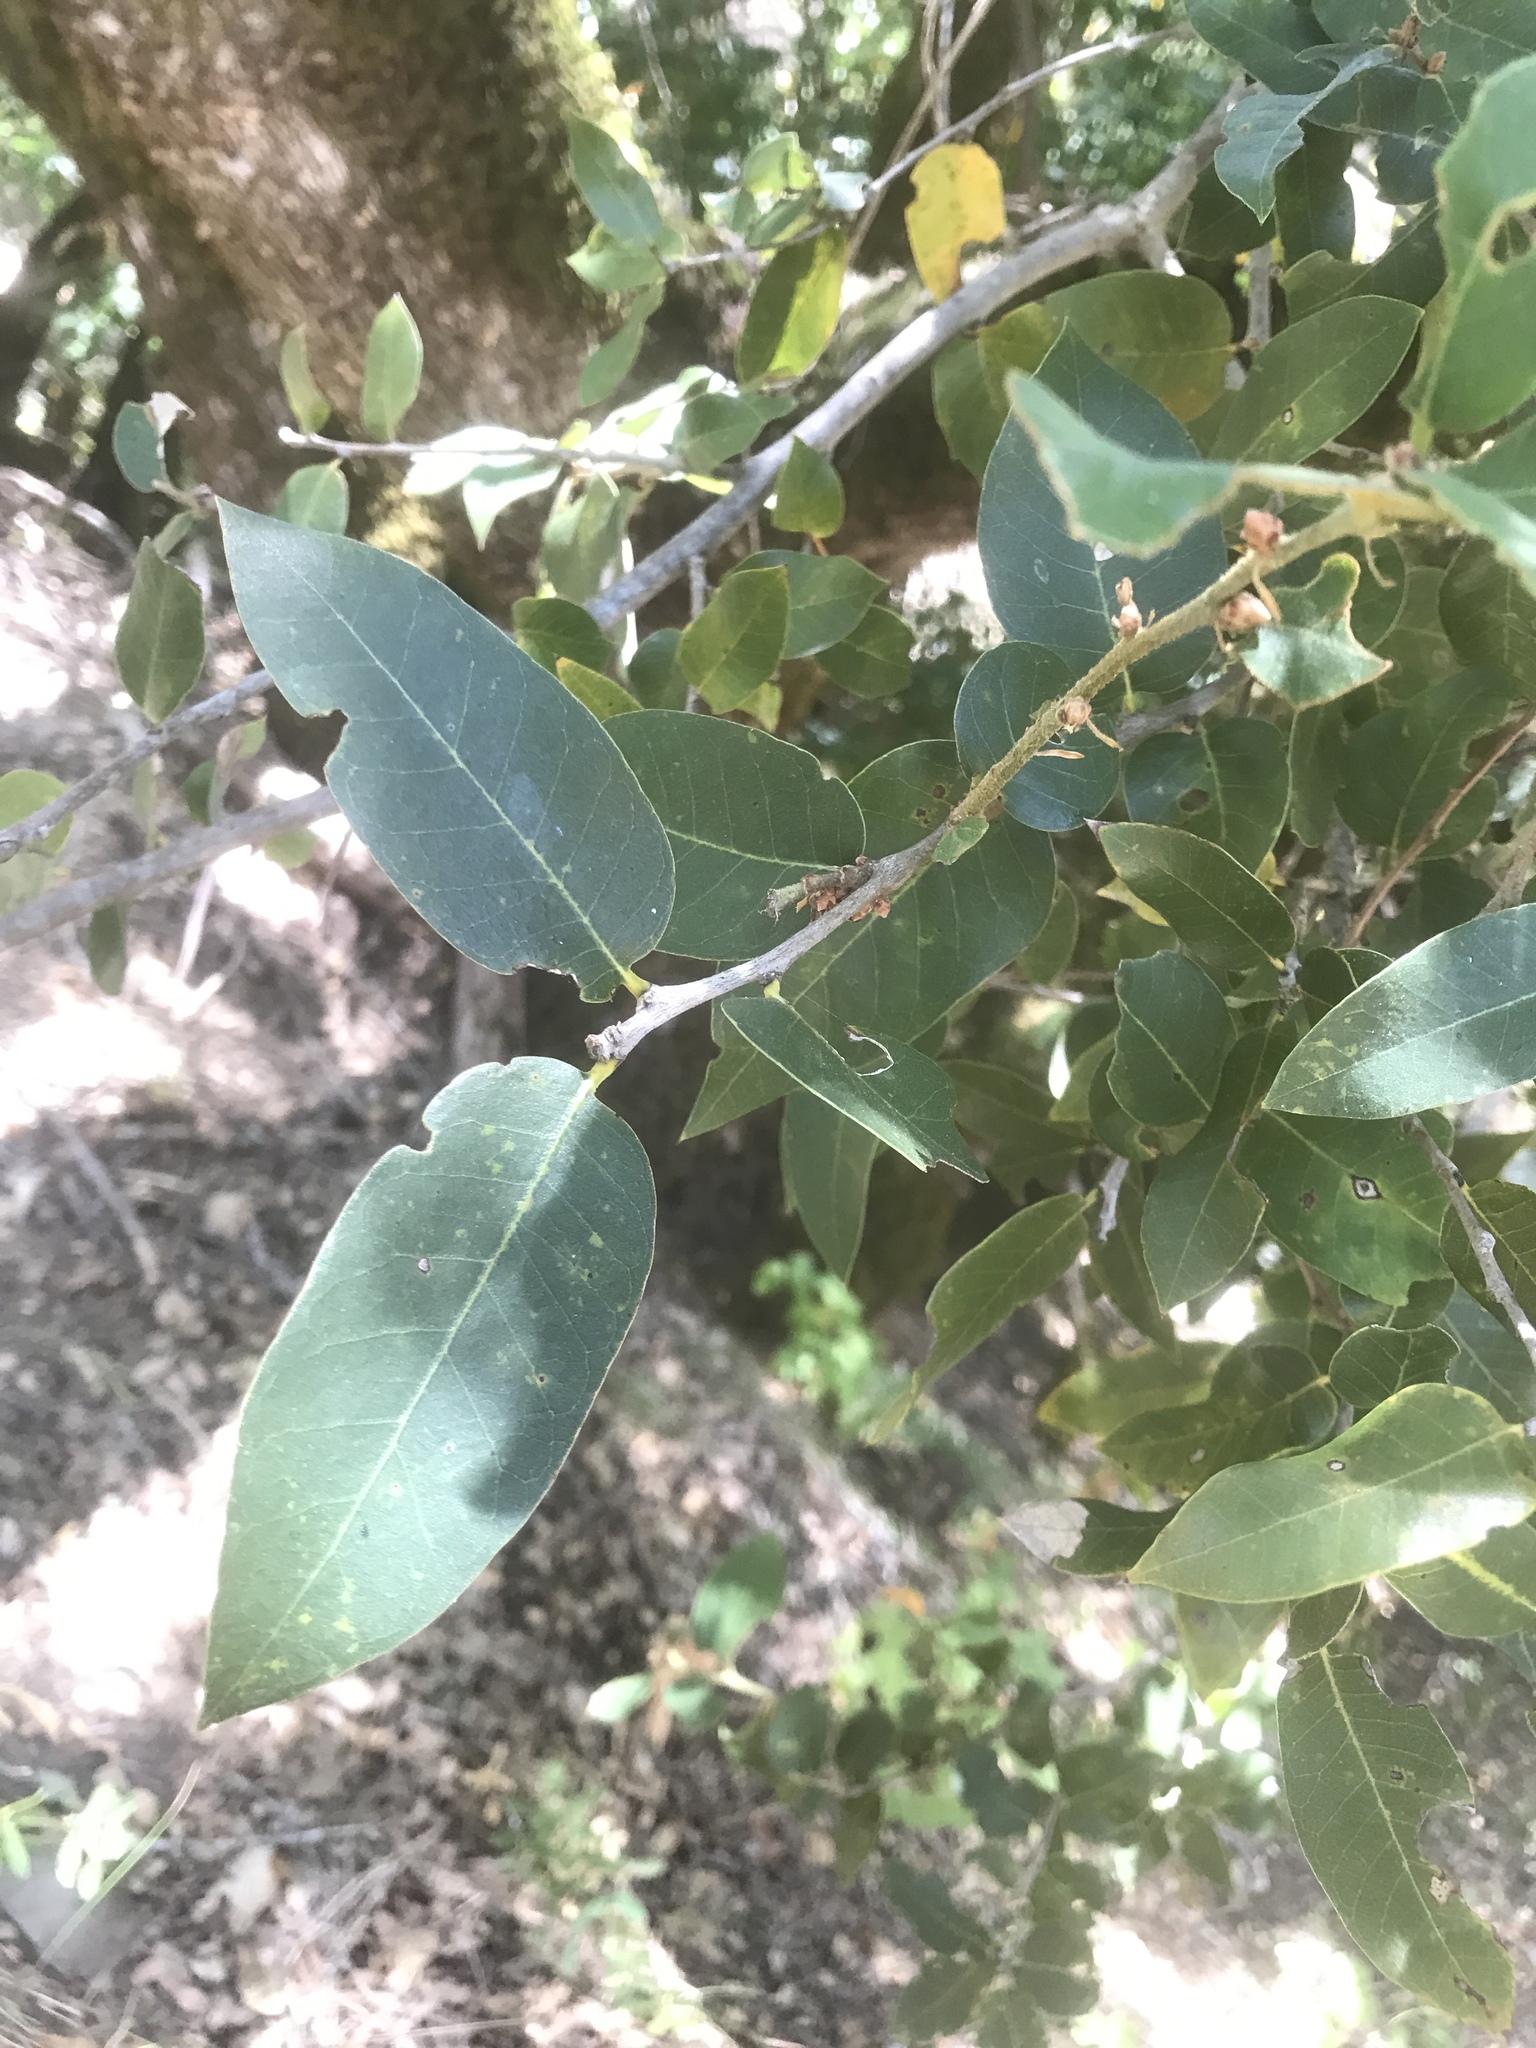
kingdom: Plantae
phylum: Tracheophyta
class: Magnoliopsida
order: Fagales
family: Fagaceae
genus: Quercus
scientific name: Quercus chrysolepis
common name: Canyon live oak
